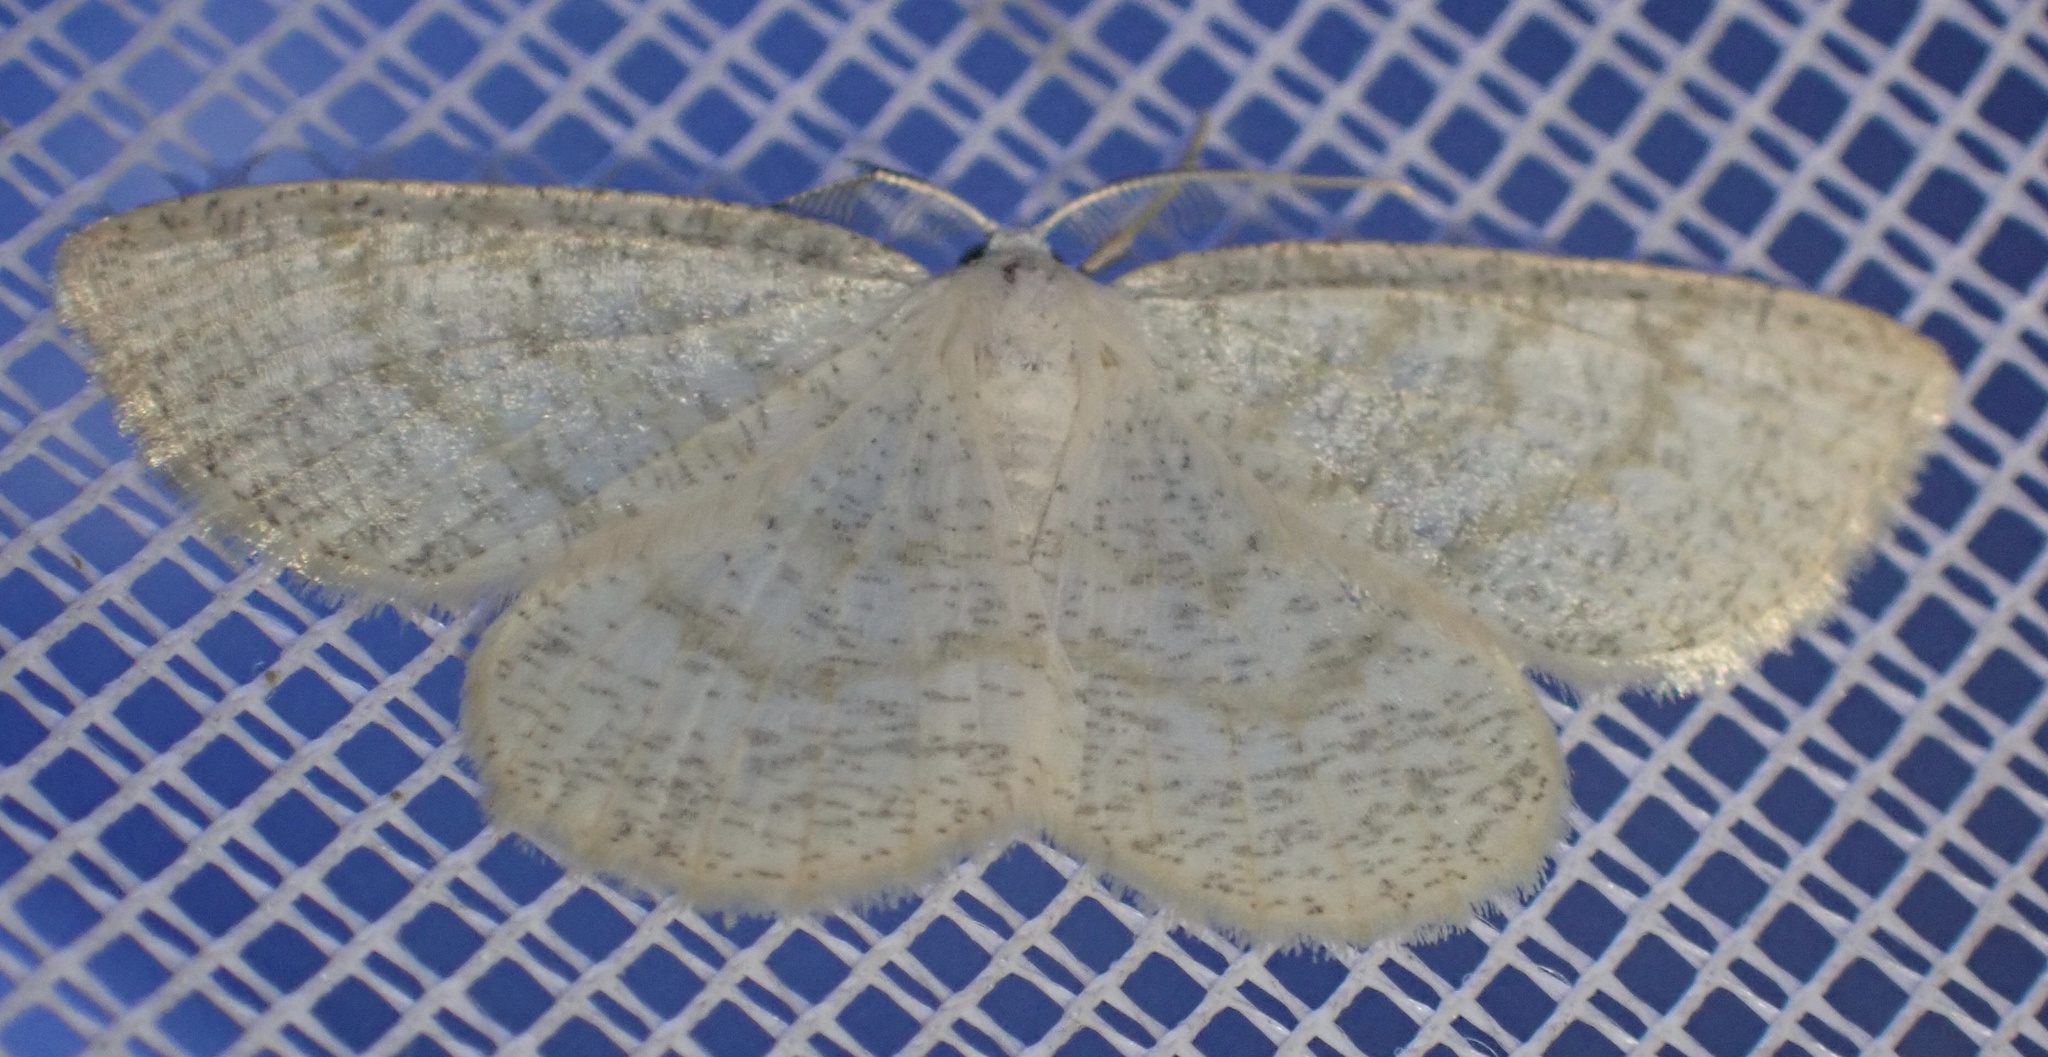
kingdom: Animalia
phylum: Arthropoda
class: Insecta
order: Lepidoptera
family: Geometridae
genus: Cabera
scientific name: Cabera exanthemata
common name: Common wave
